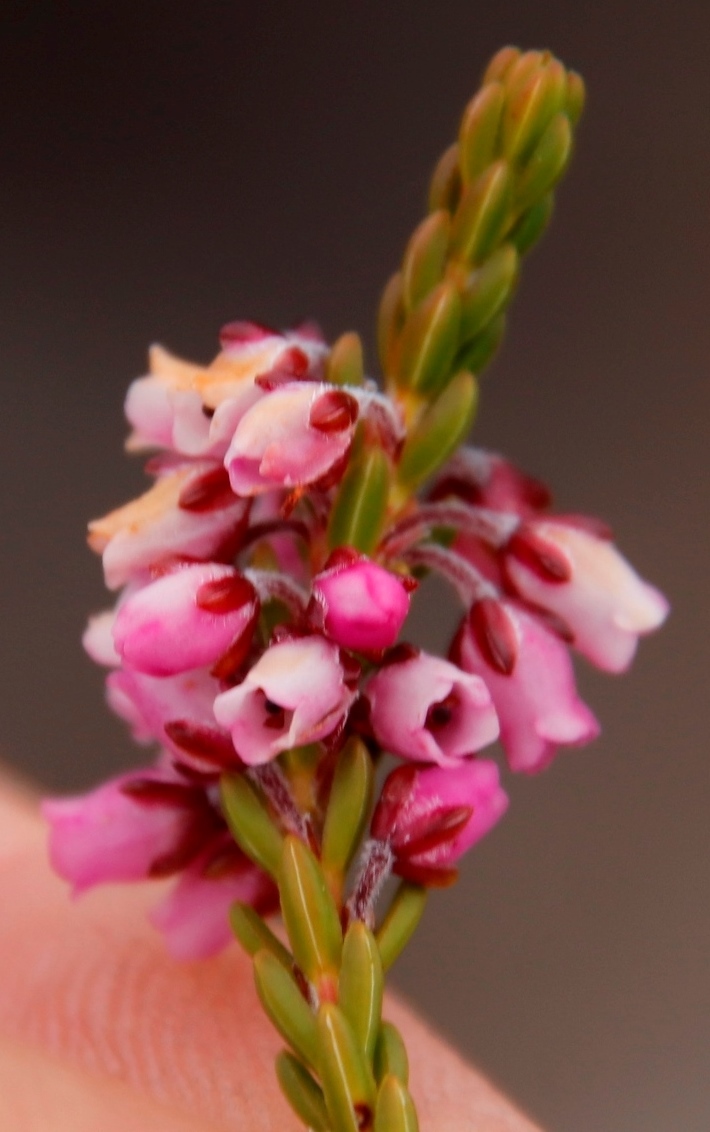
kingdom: Plantae
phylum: Tracheophyta
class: Magnoliopsida
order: Ericales
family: Ericaceae
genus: Erica
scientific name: Erica pulchella
